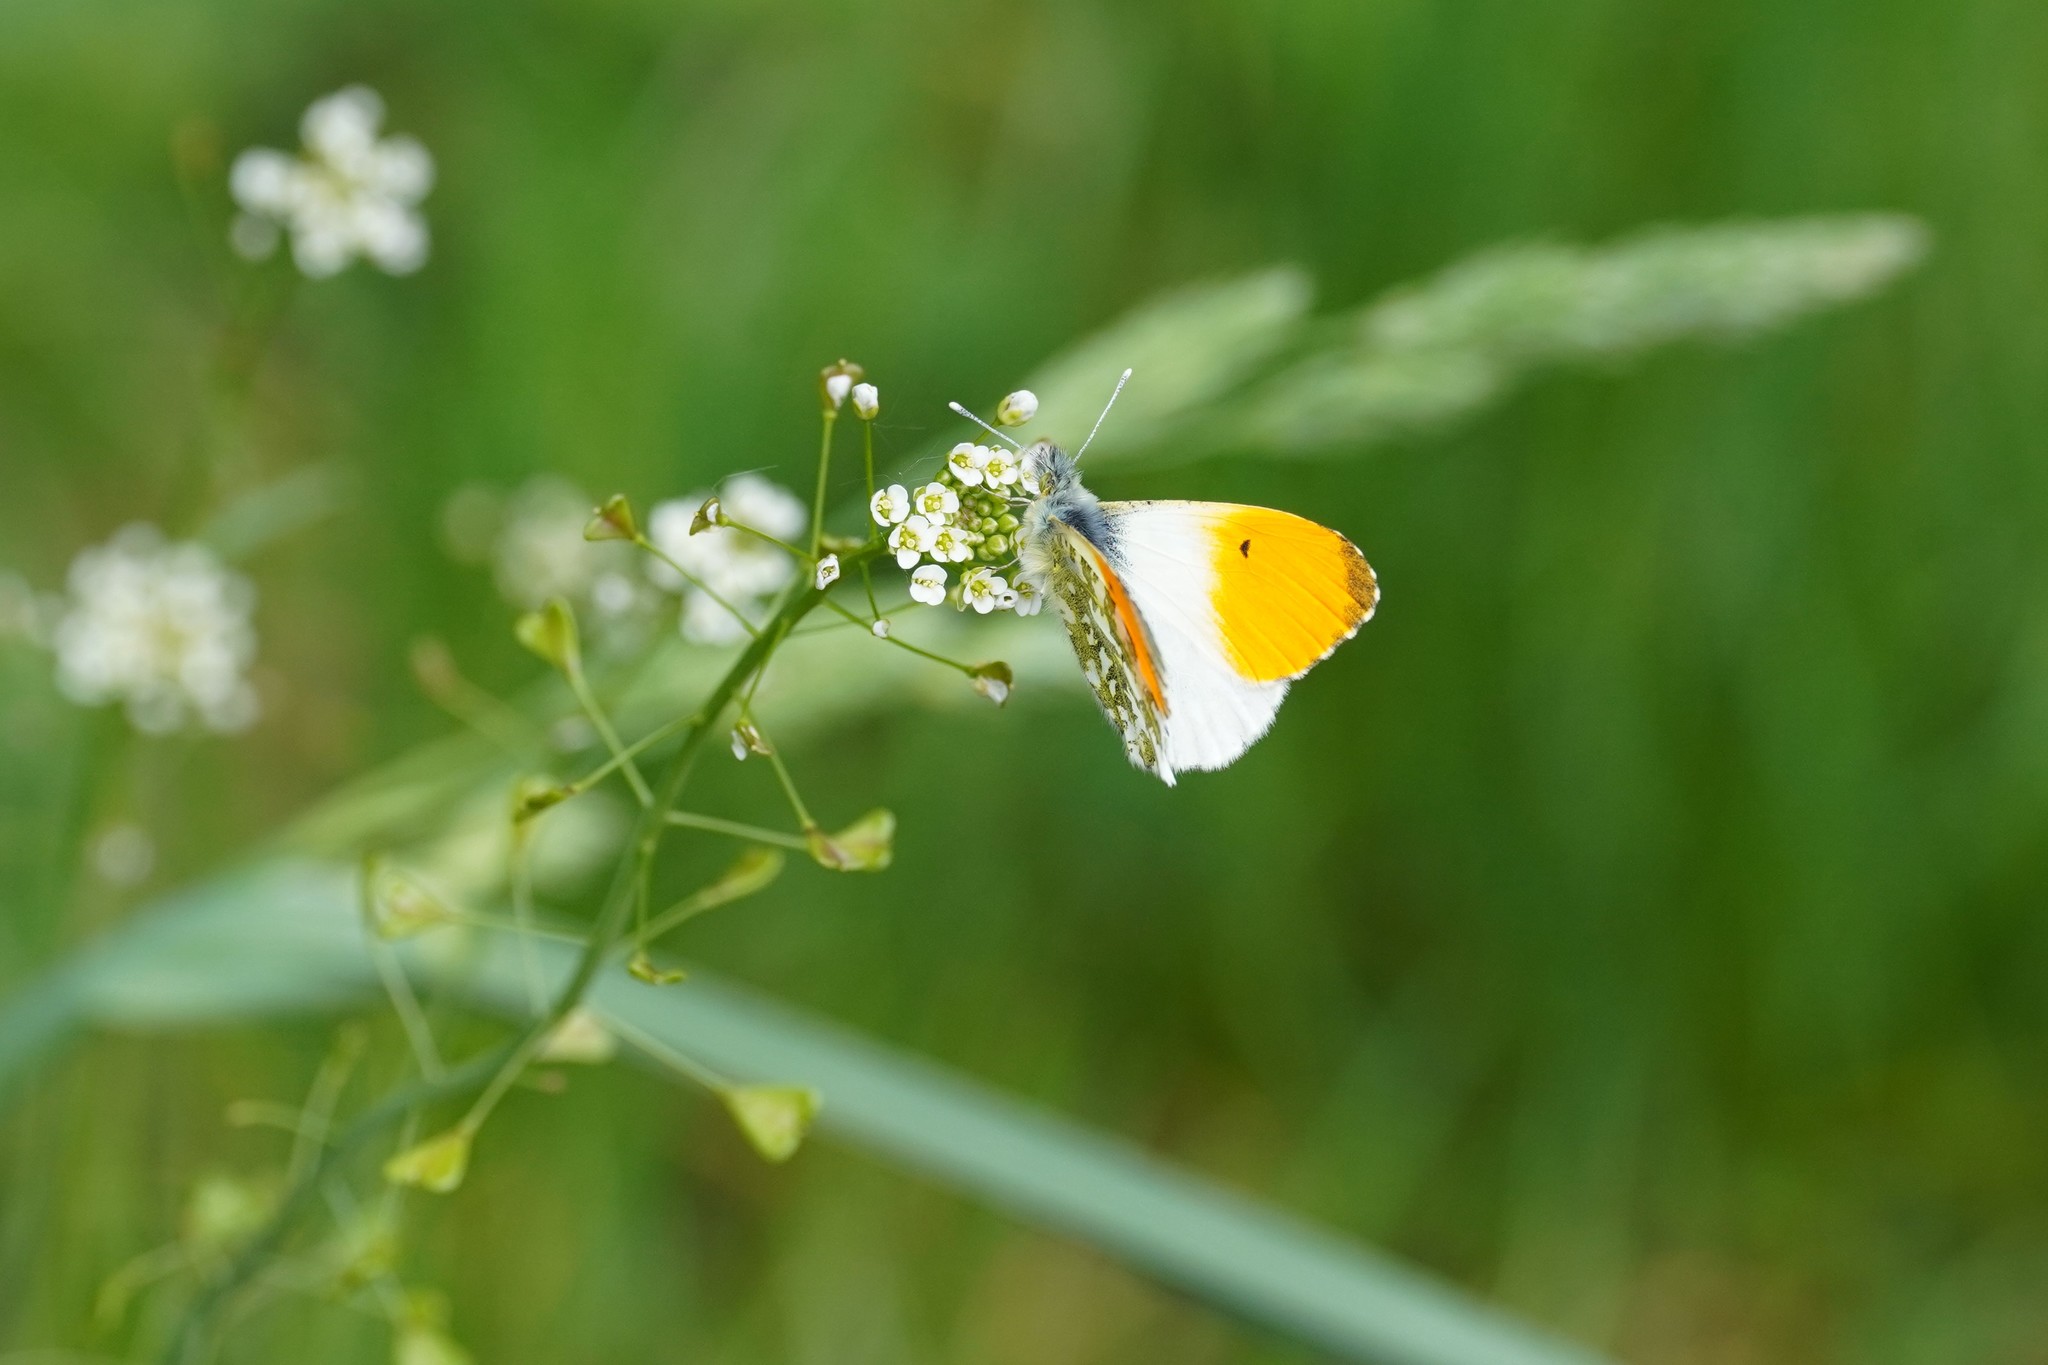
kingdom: Animalia
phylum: Arthropoda
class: Insecta
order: Lepidoptera
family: Pieridae
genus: Anthocharis
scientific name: Anthocharis cardamines
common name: Orange-tip
